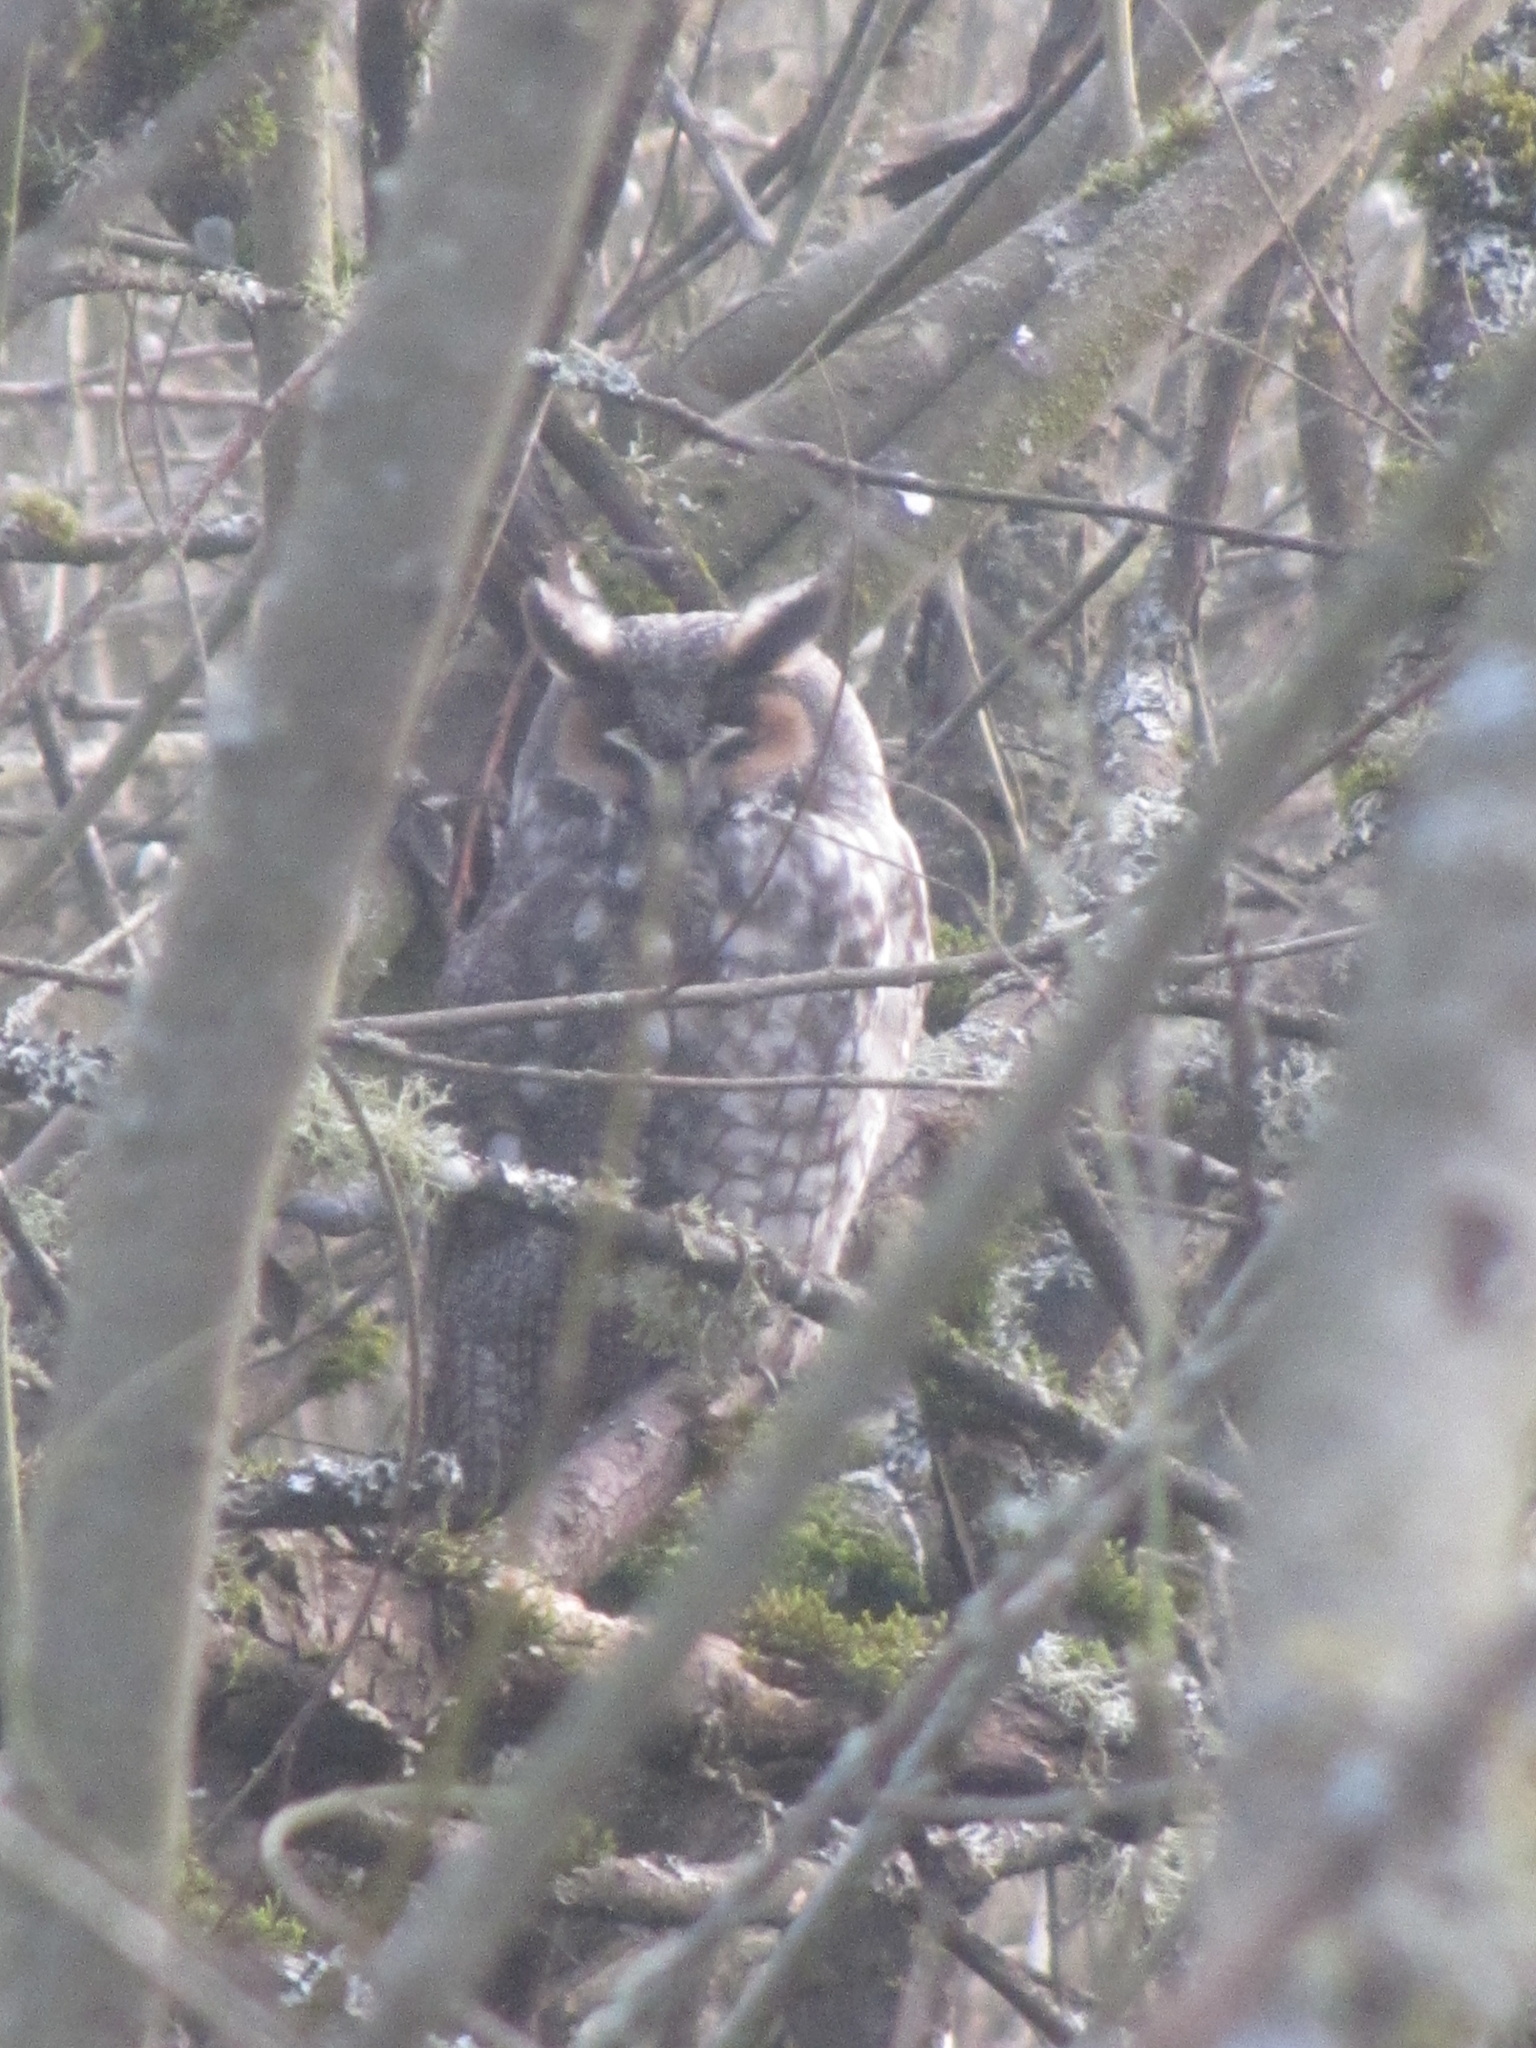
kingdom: Animalia
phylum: Chordata
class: Aves
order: Strigiformes
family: Strigidae
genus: Asio
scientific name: Asio otus
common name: Long-eared owl
